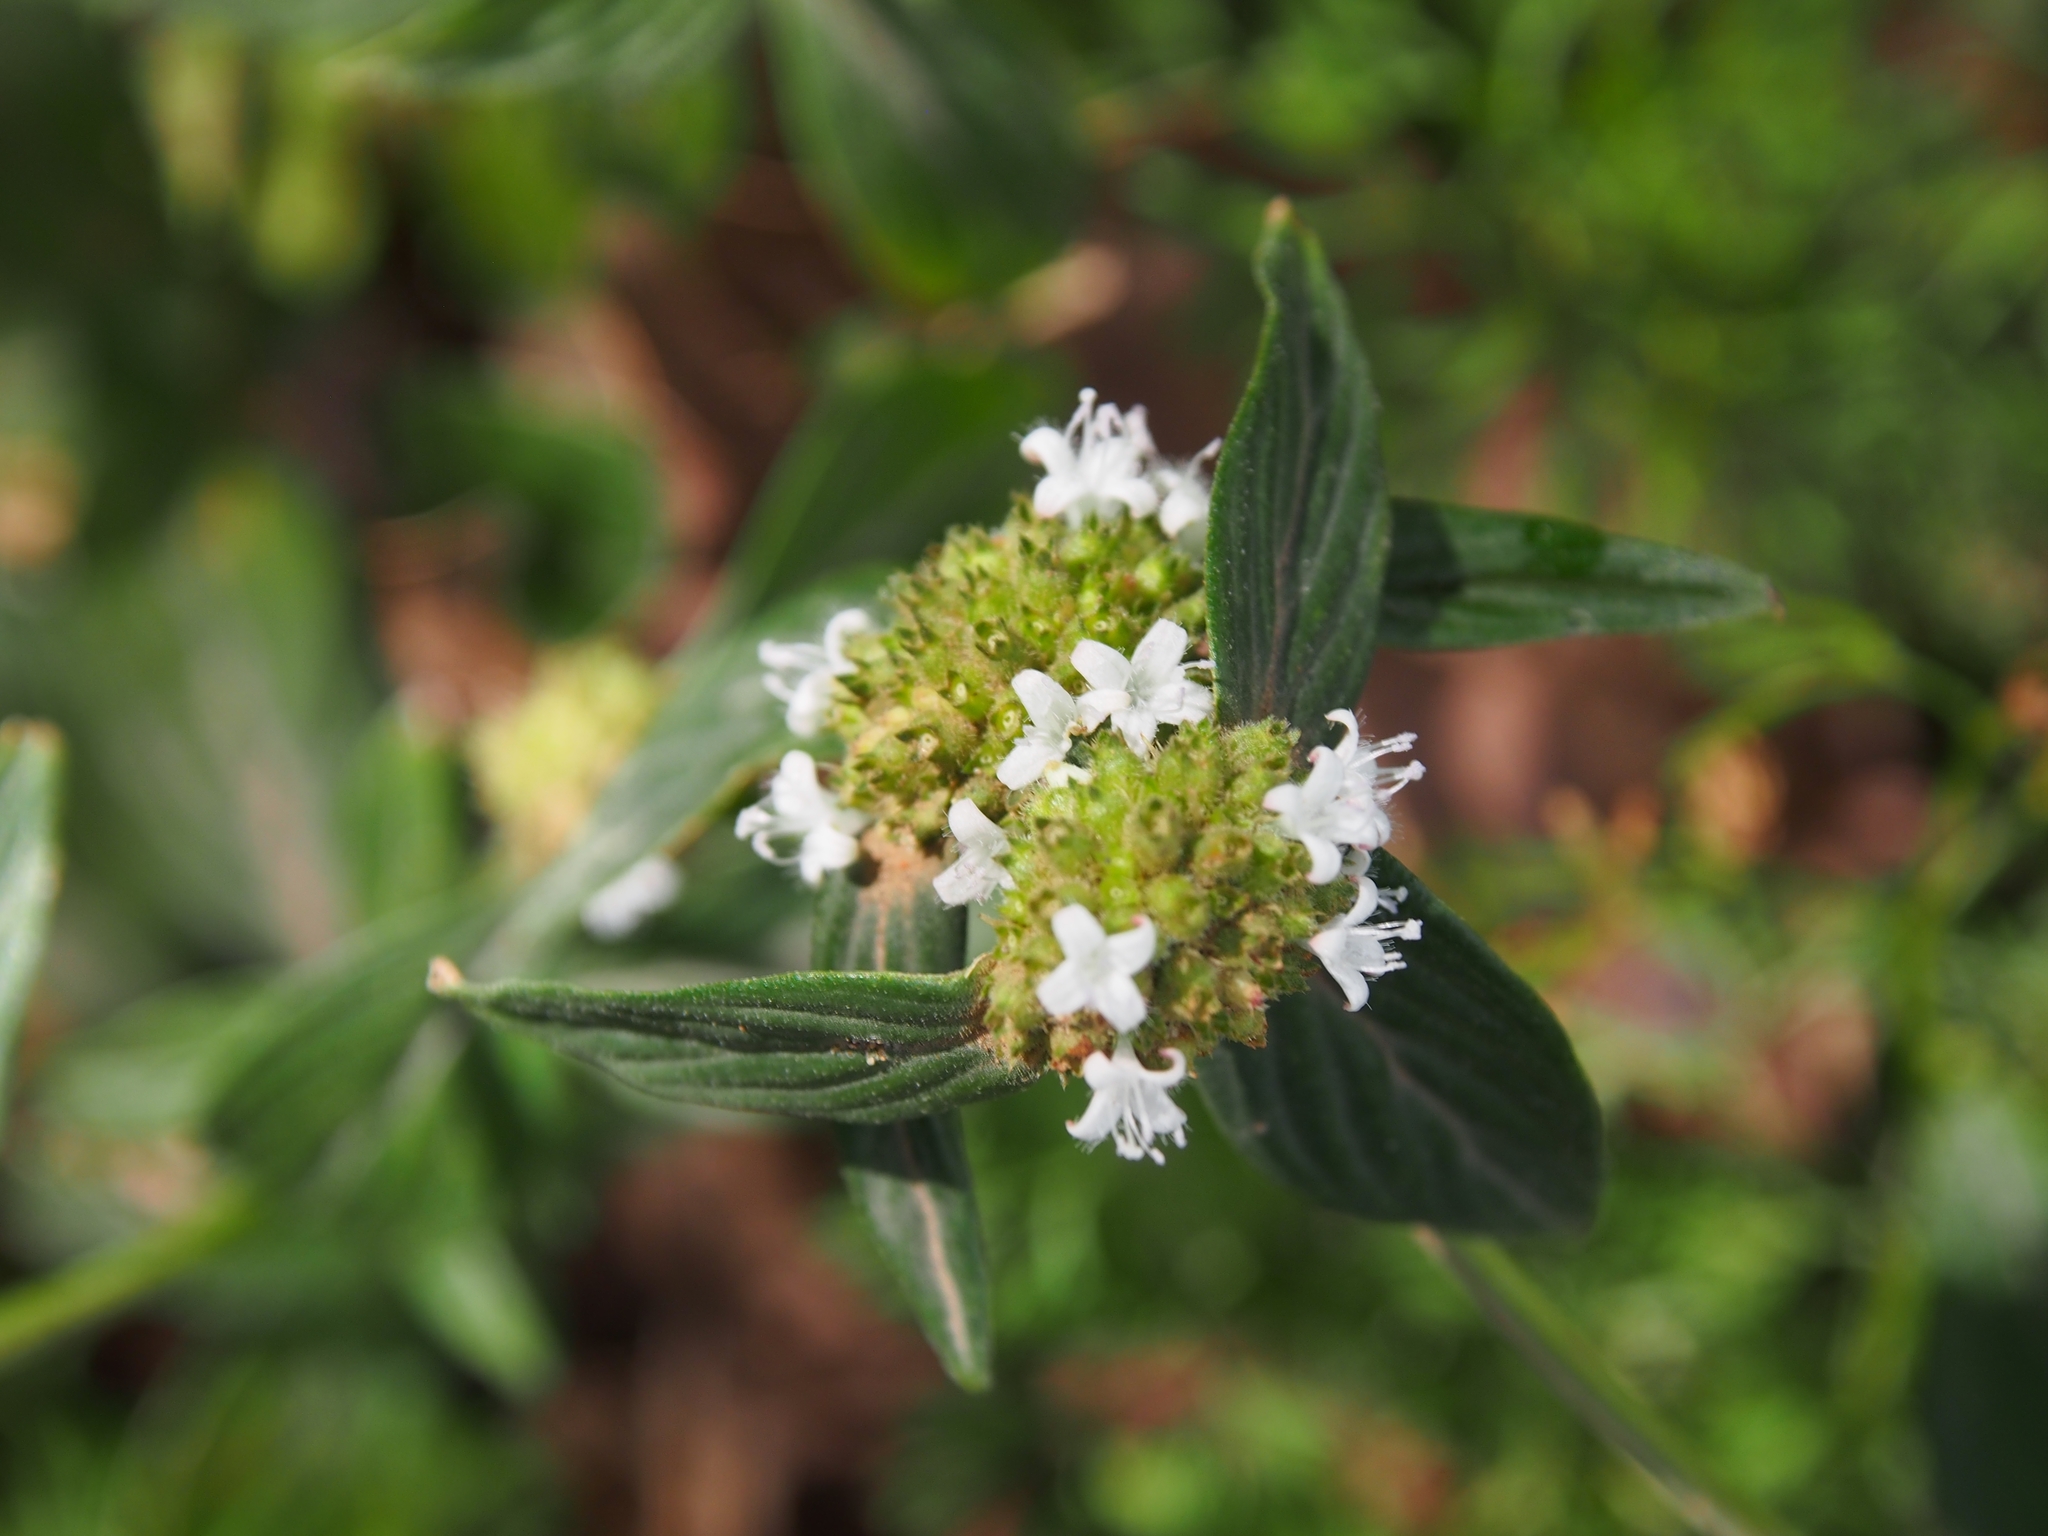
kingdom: Plantae
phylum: Tracheophyta
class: Magnoliopsida
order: Gentianales
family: Rubiaceae
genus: Spermacoce
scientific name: Spermacoce remota
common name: Woodland false buttonweed
